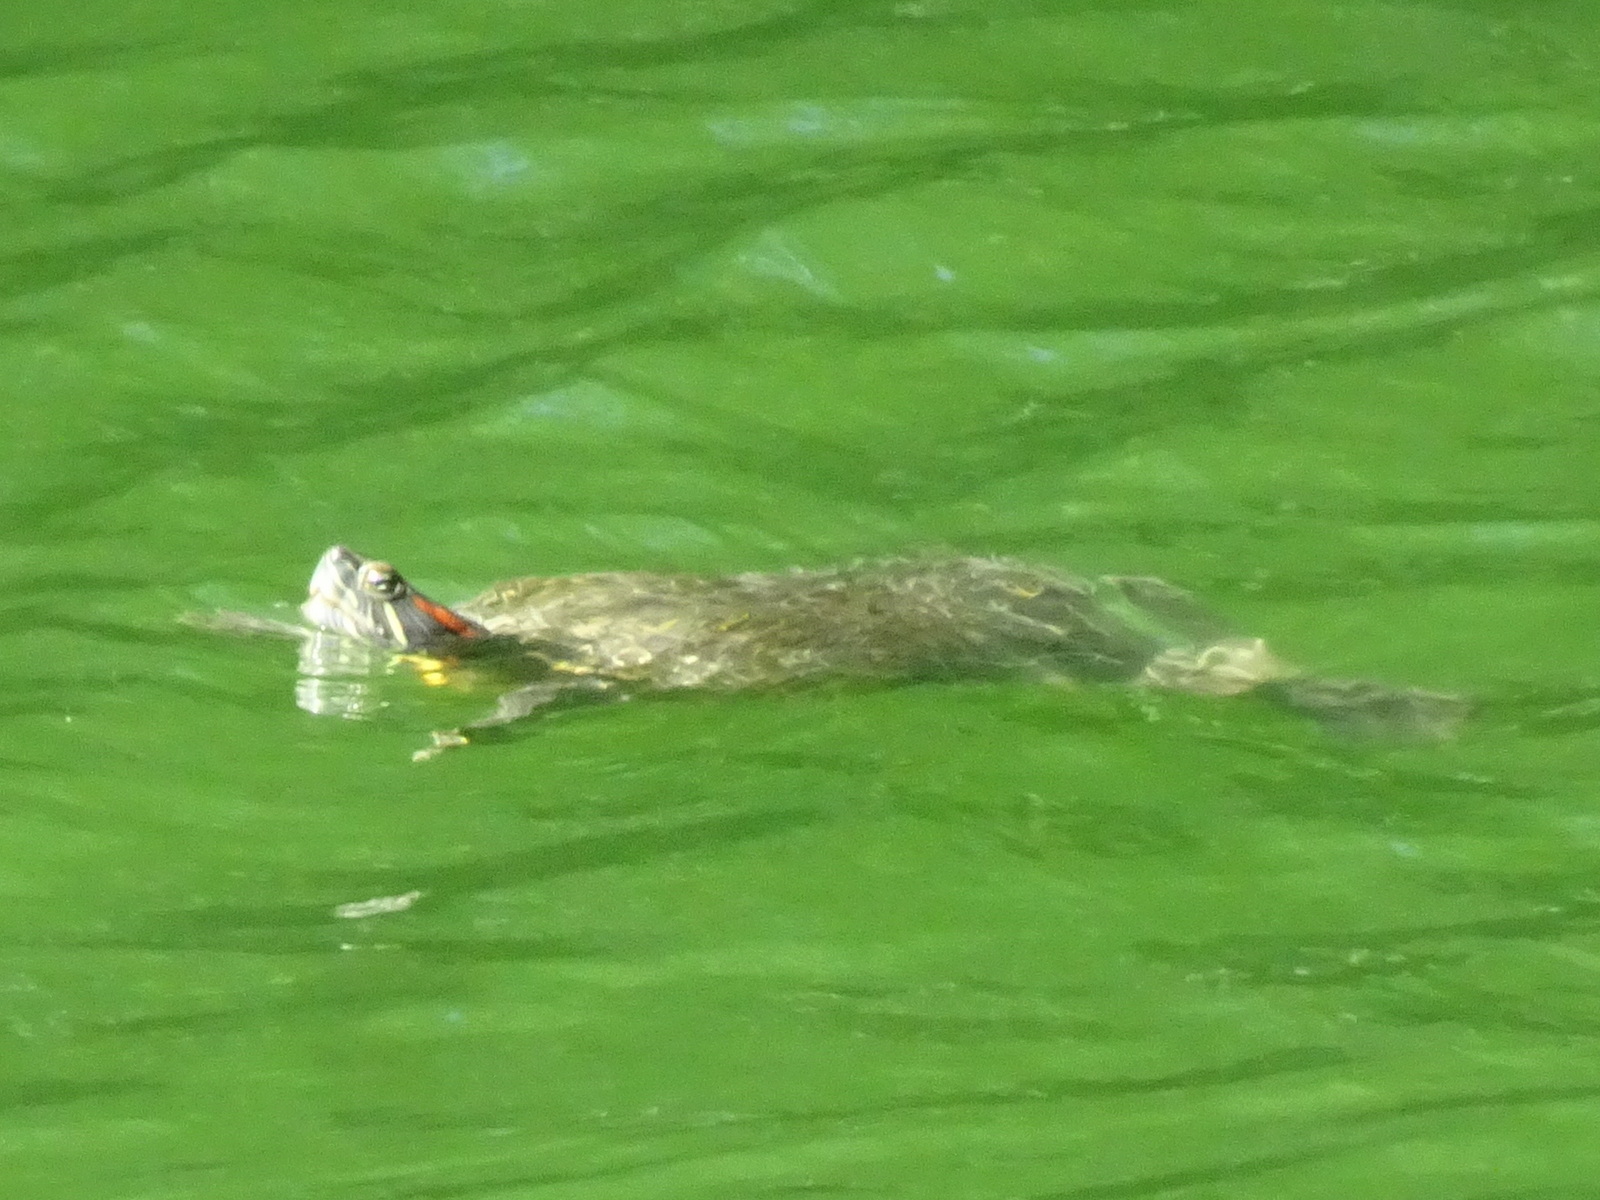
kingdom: Animalia
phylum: Chordata
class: Testudines
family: Emydidae
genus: Trachemys
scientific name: Trachemys scripta
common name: Slider
